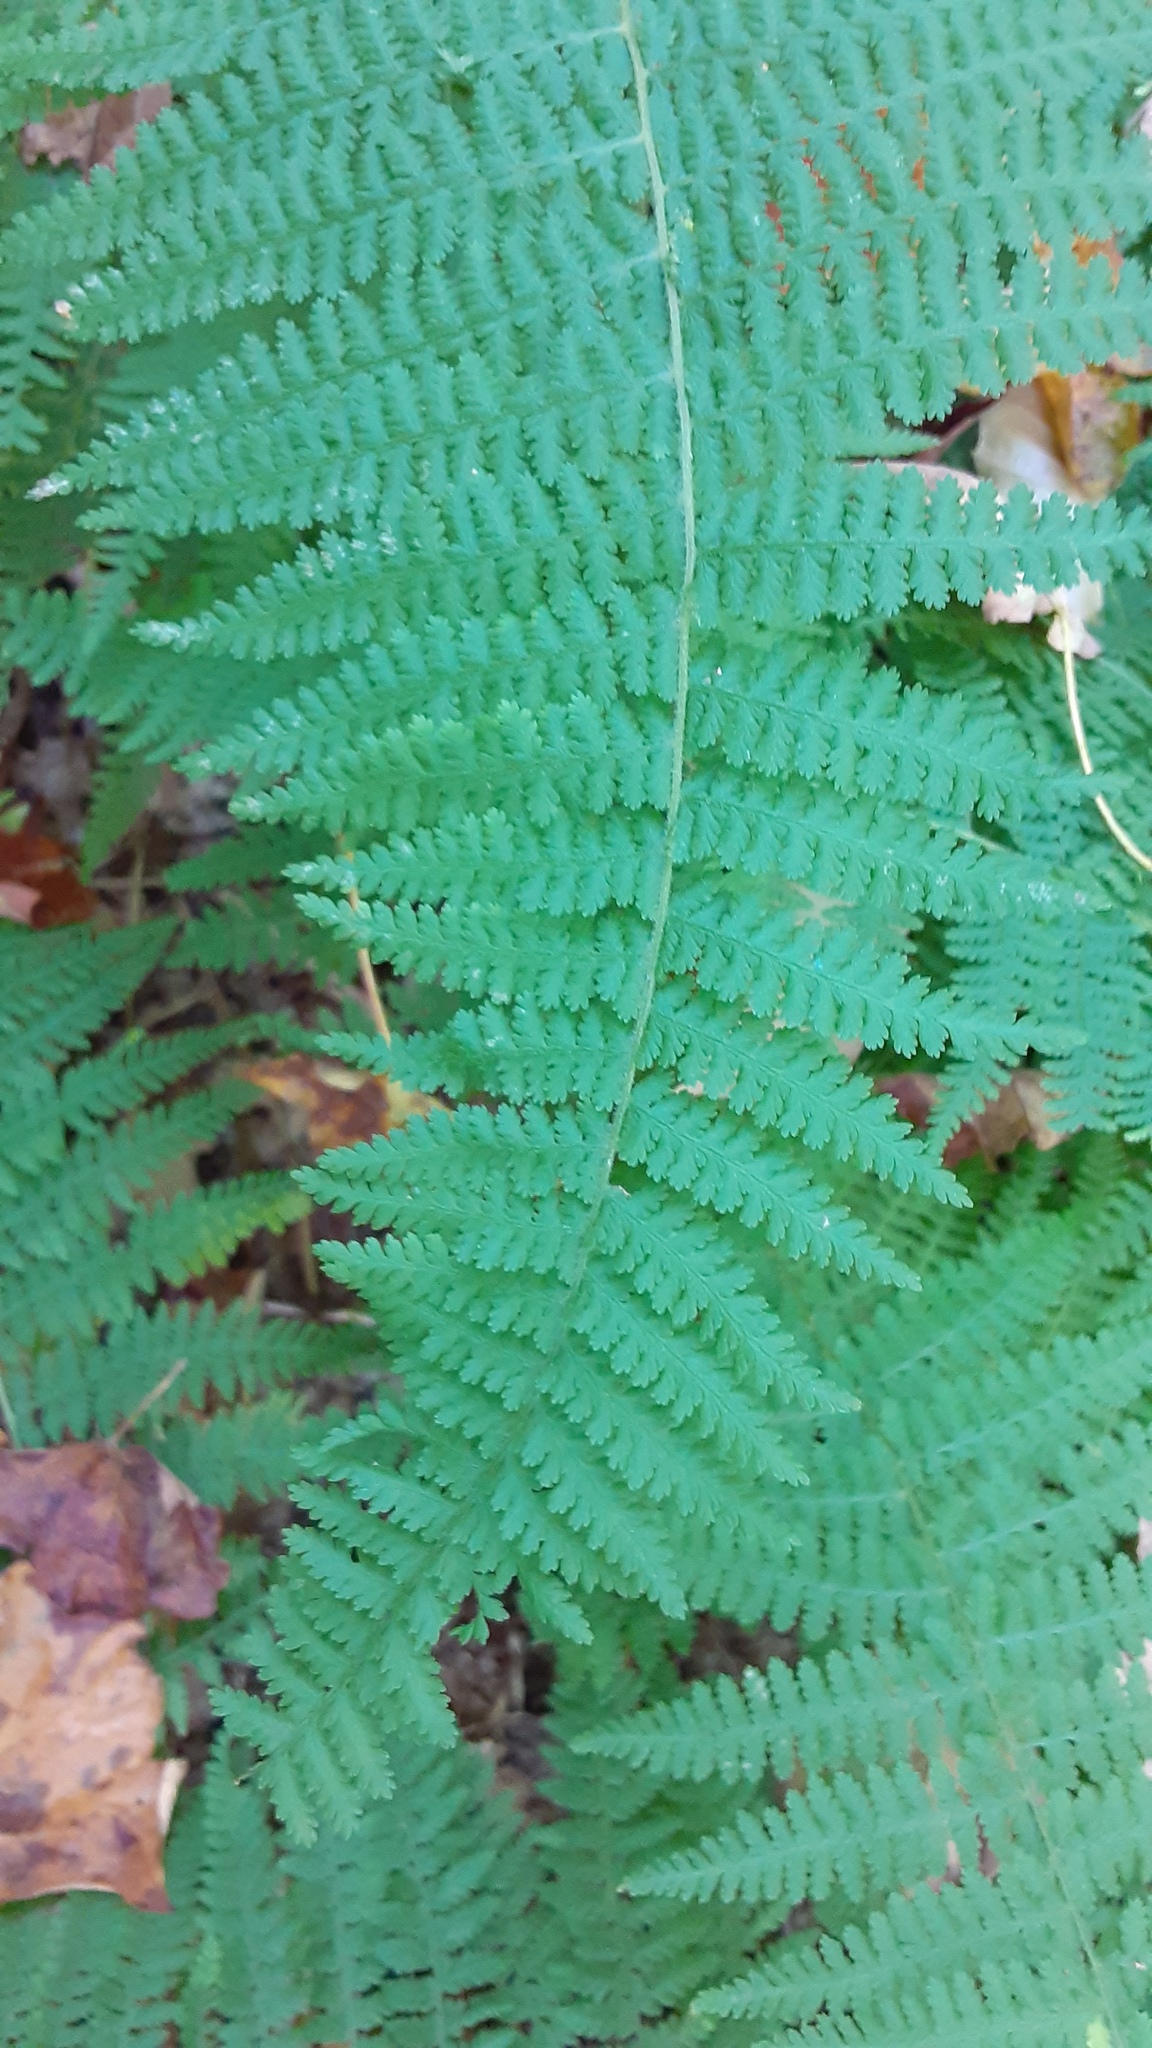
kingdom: Plantae
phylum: Tracheophyta
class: Polypodiopsida
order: Polypodiales
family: Dennstaedtiaceae
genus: Sitobolium
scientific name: Sitobolium punctilobum
